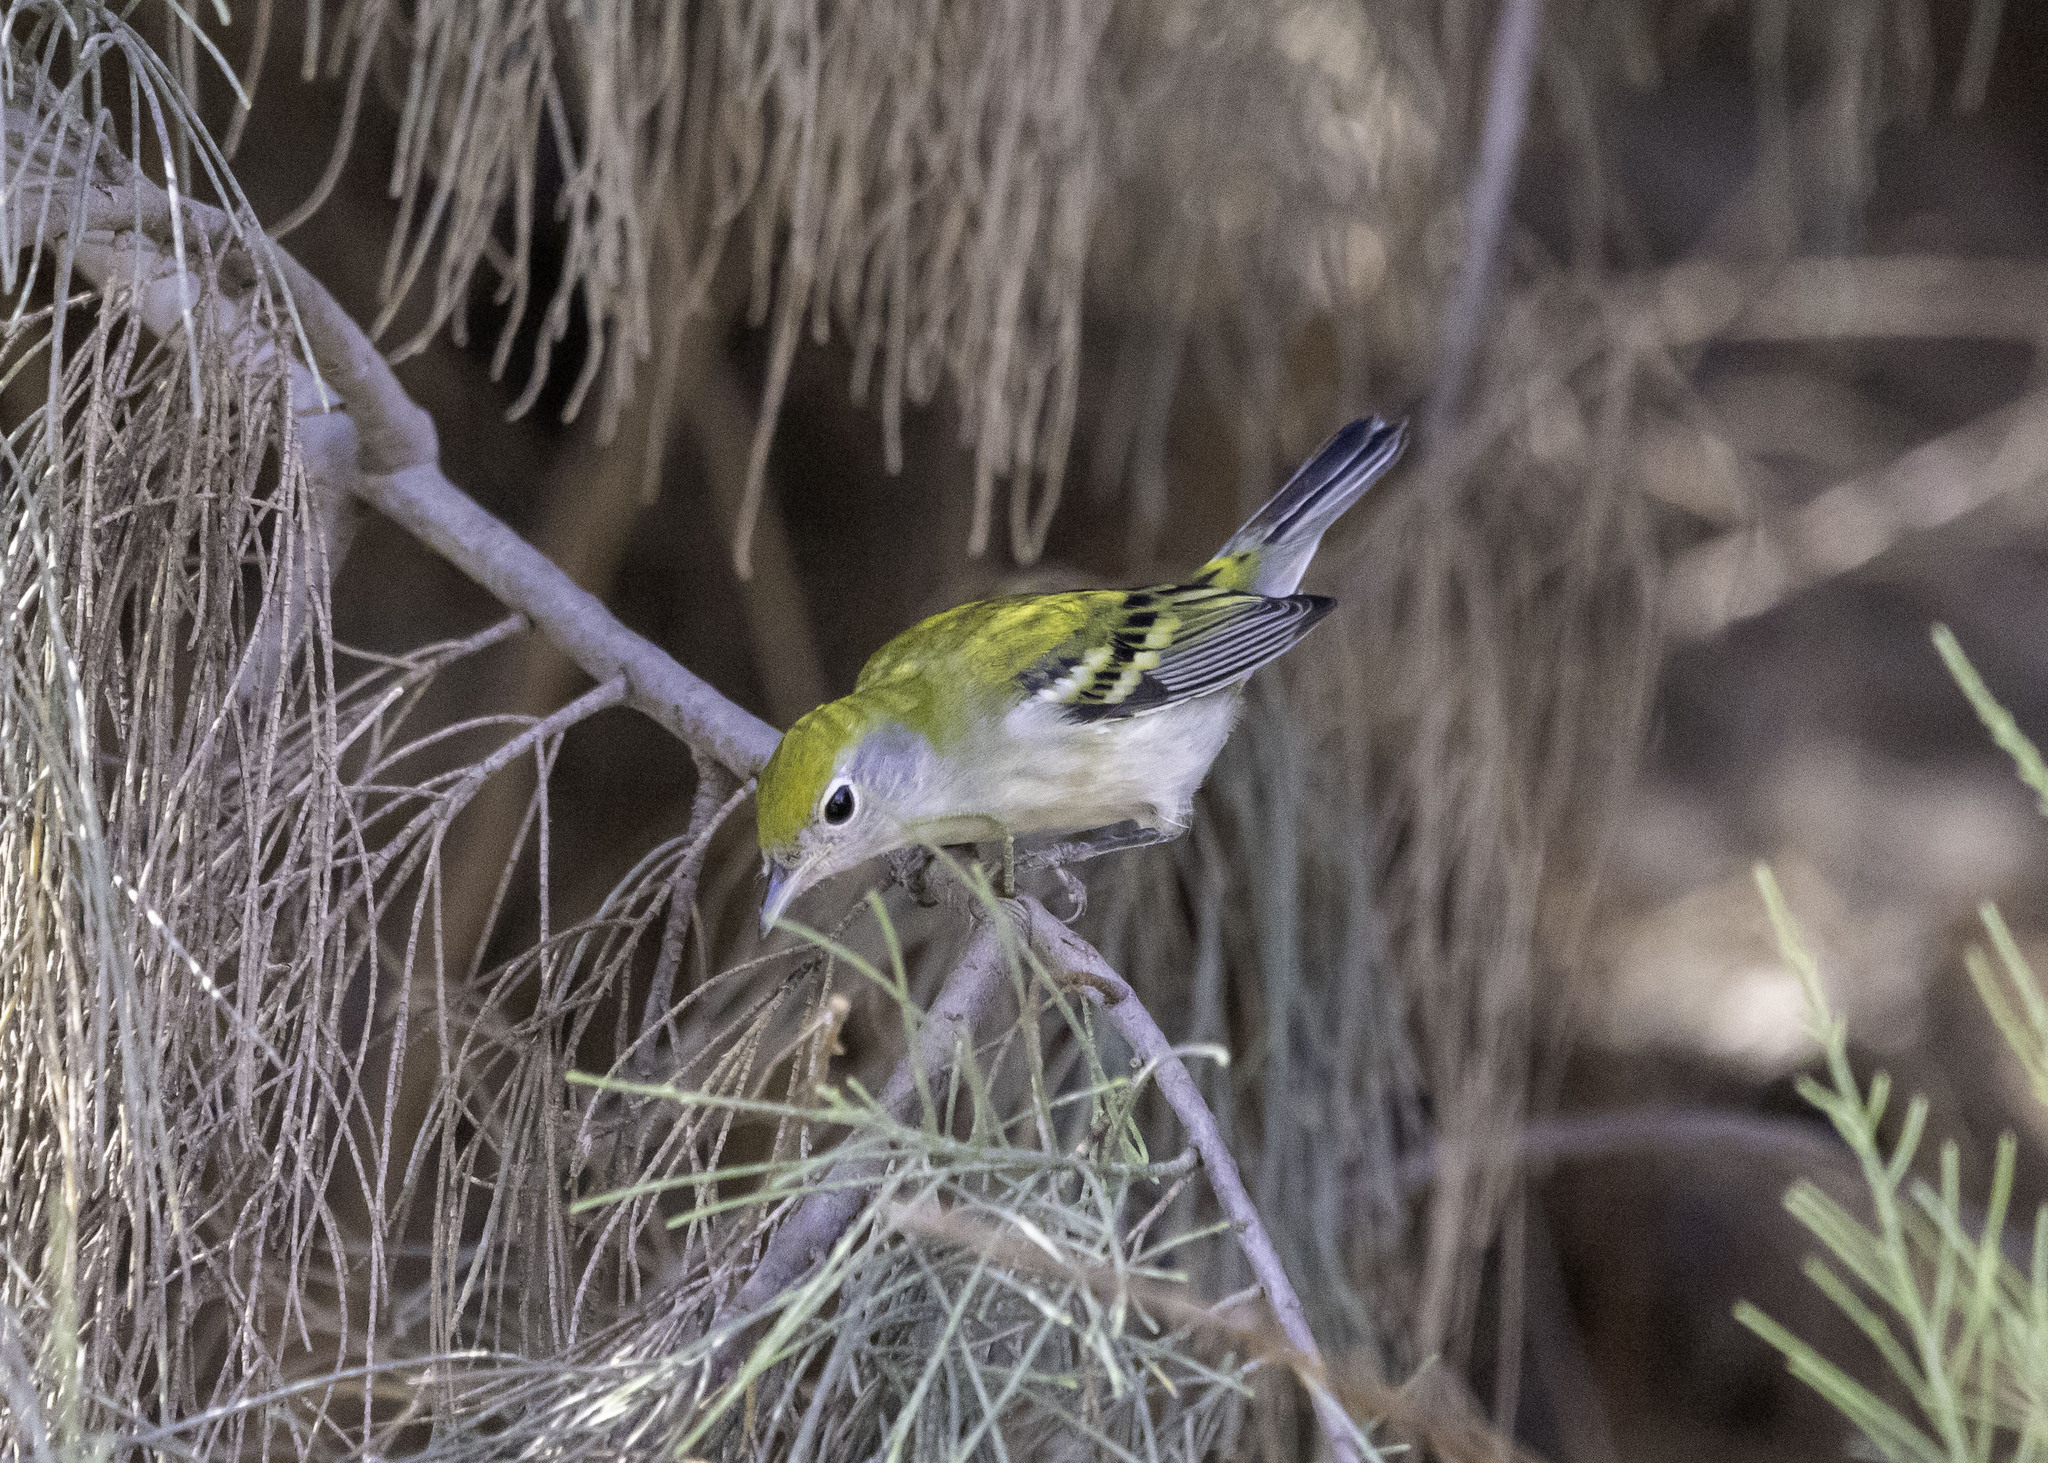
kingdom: Animalia
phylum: Chordata
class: Aves
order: Passeriformes
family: Parulidae
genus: Setophaga
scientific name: Setophaga pensylvanica
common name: Chestnut-sided warbler
